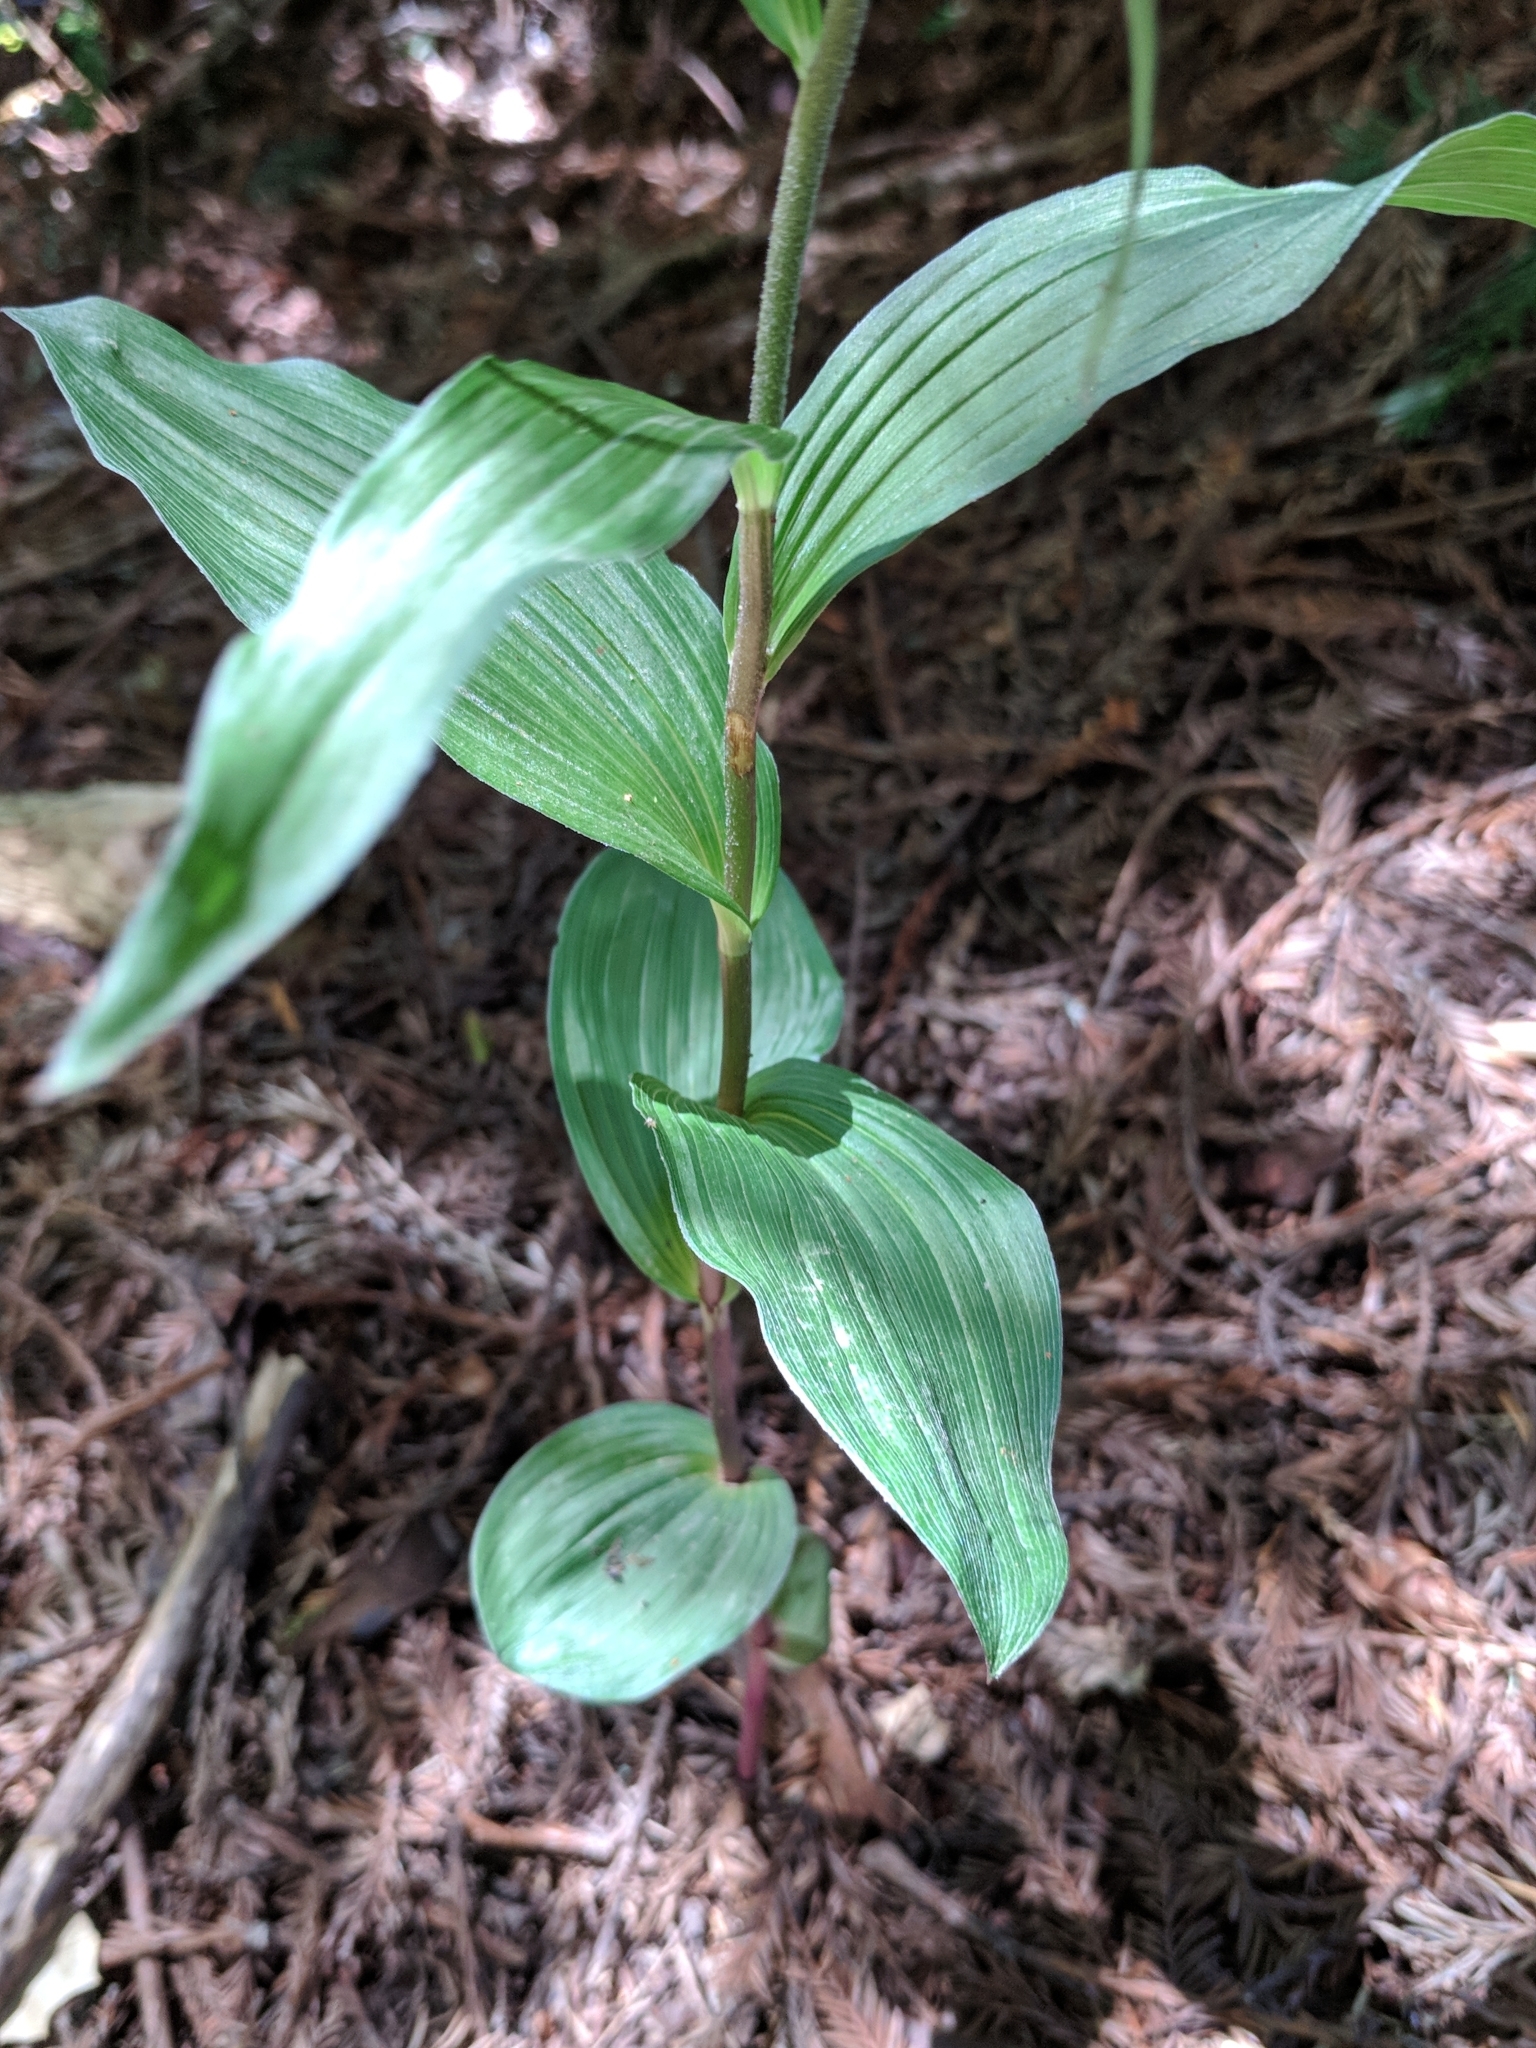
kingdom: Plantae
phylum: Tracheophyta
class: Liliopsida
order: Asparagales
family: Orchidaceae
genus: Epipactis
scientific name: Epipactis helleborine
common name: Broad-leaved helleborine
